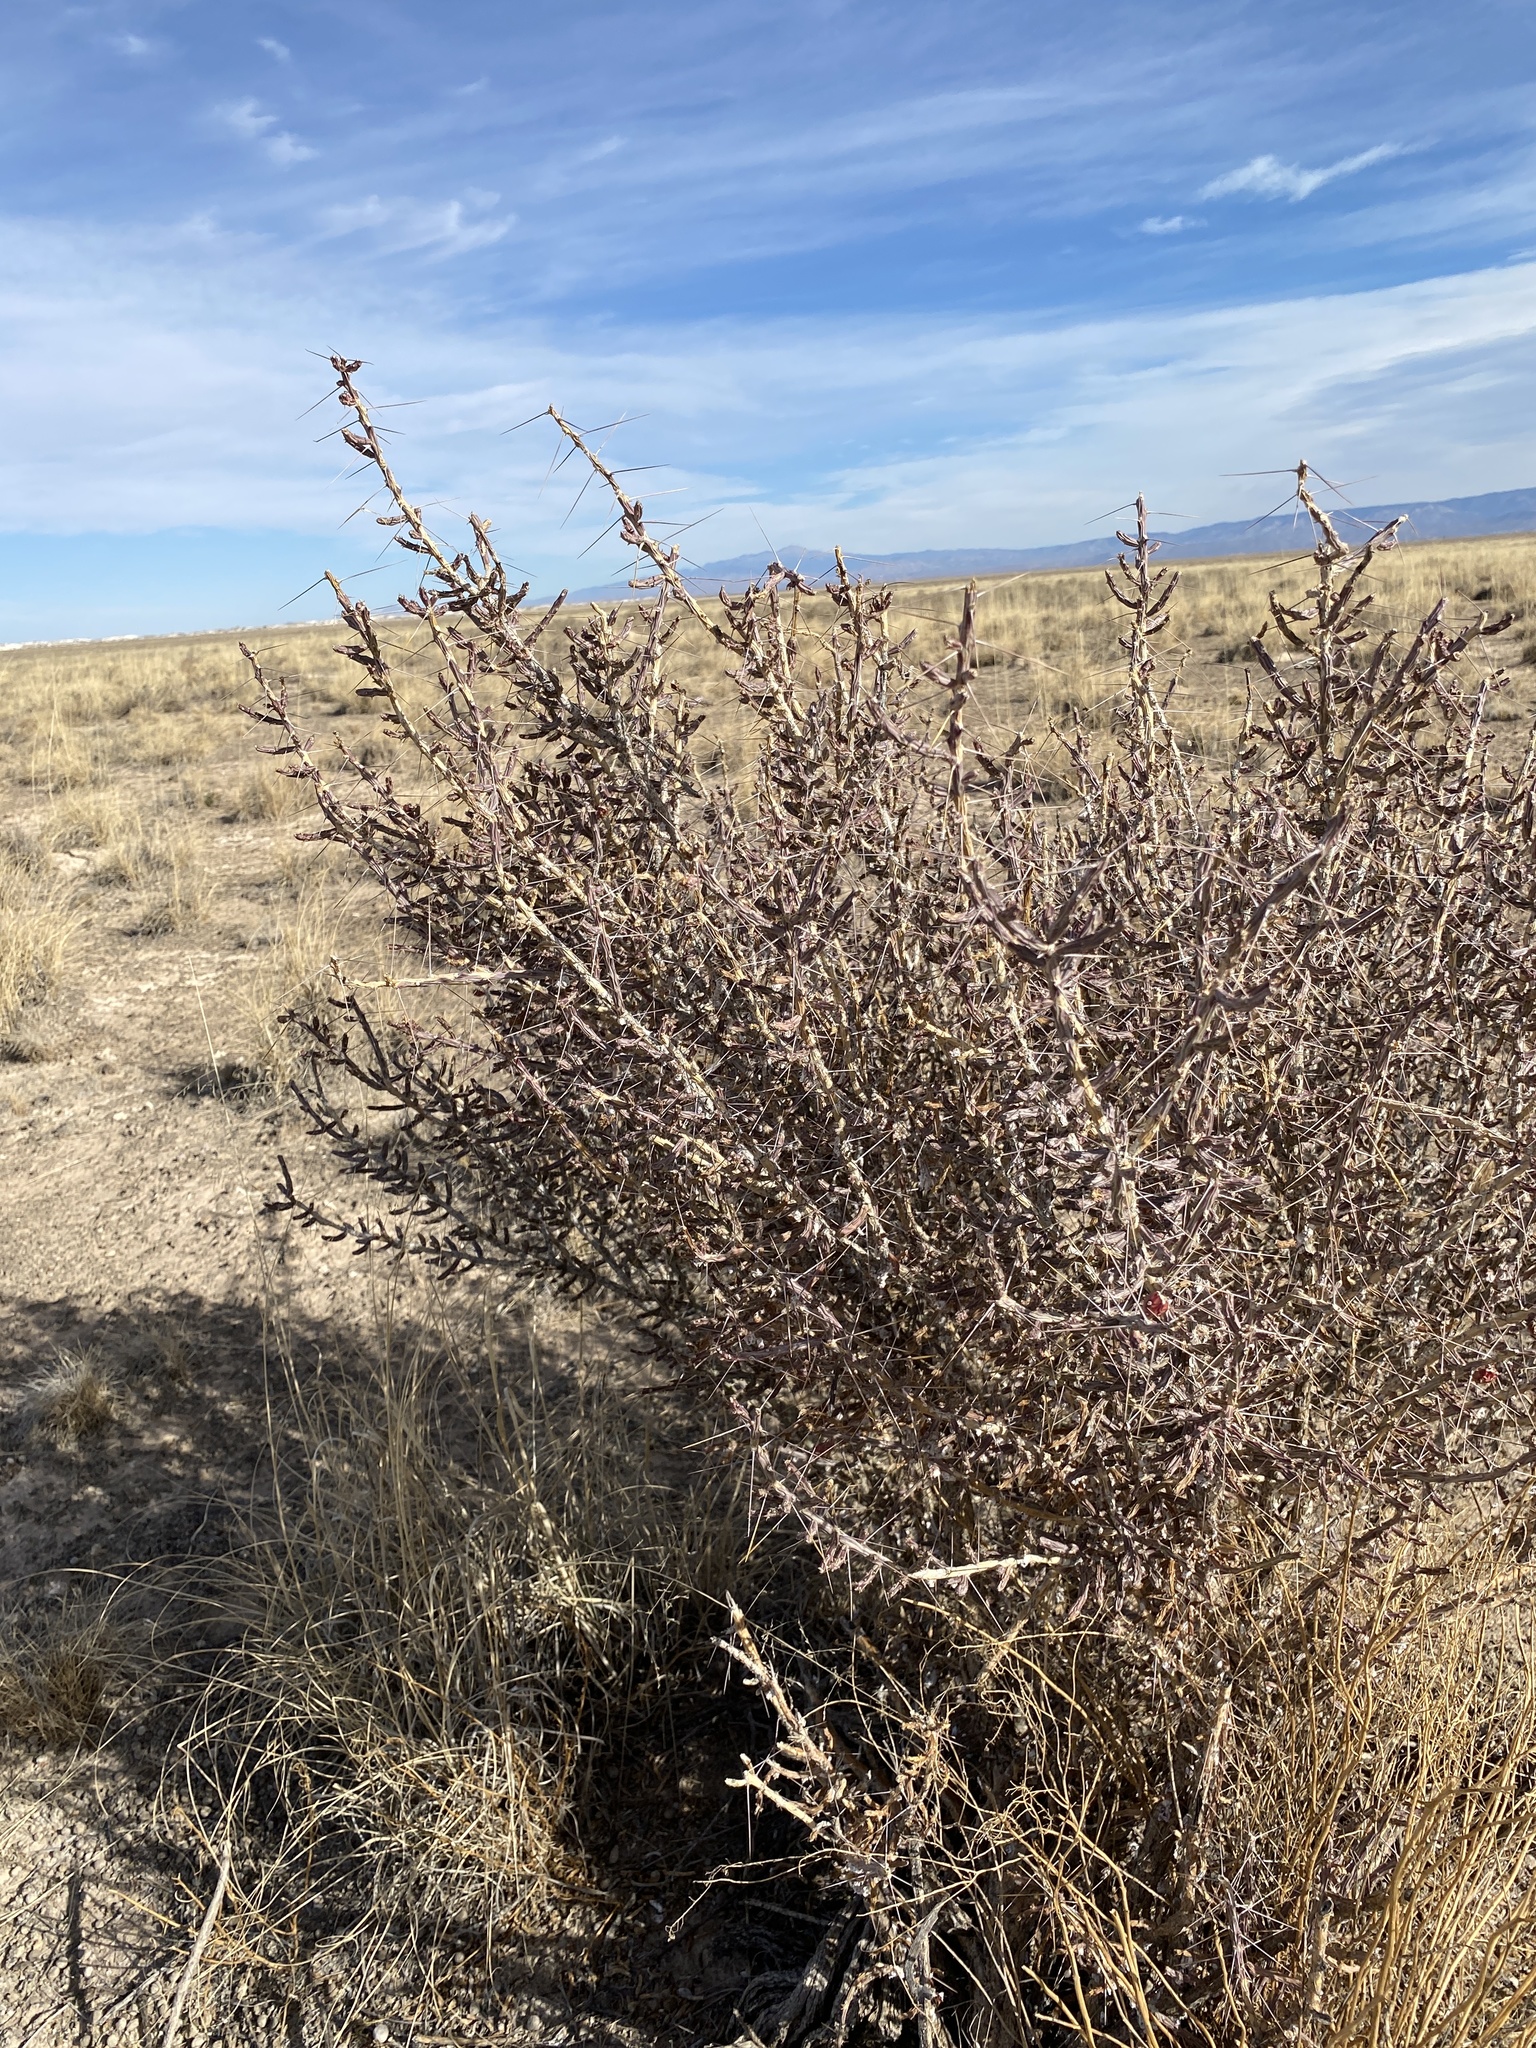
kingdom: Plantae
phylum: Tracheophyta
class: Magnoliopsida
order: Caryophyllales
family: Cactaceae
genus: Cylindropuntia
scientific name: Cylindropuntia leptocaulis
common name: Christmas cactus
